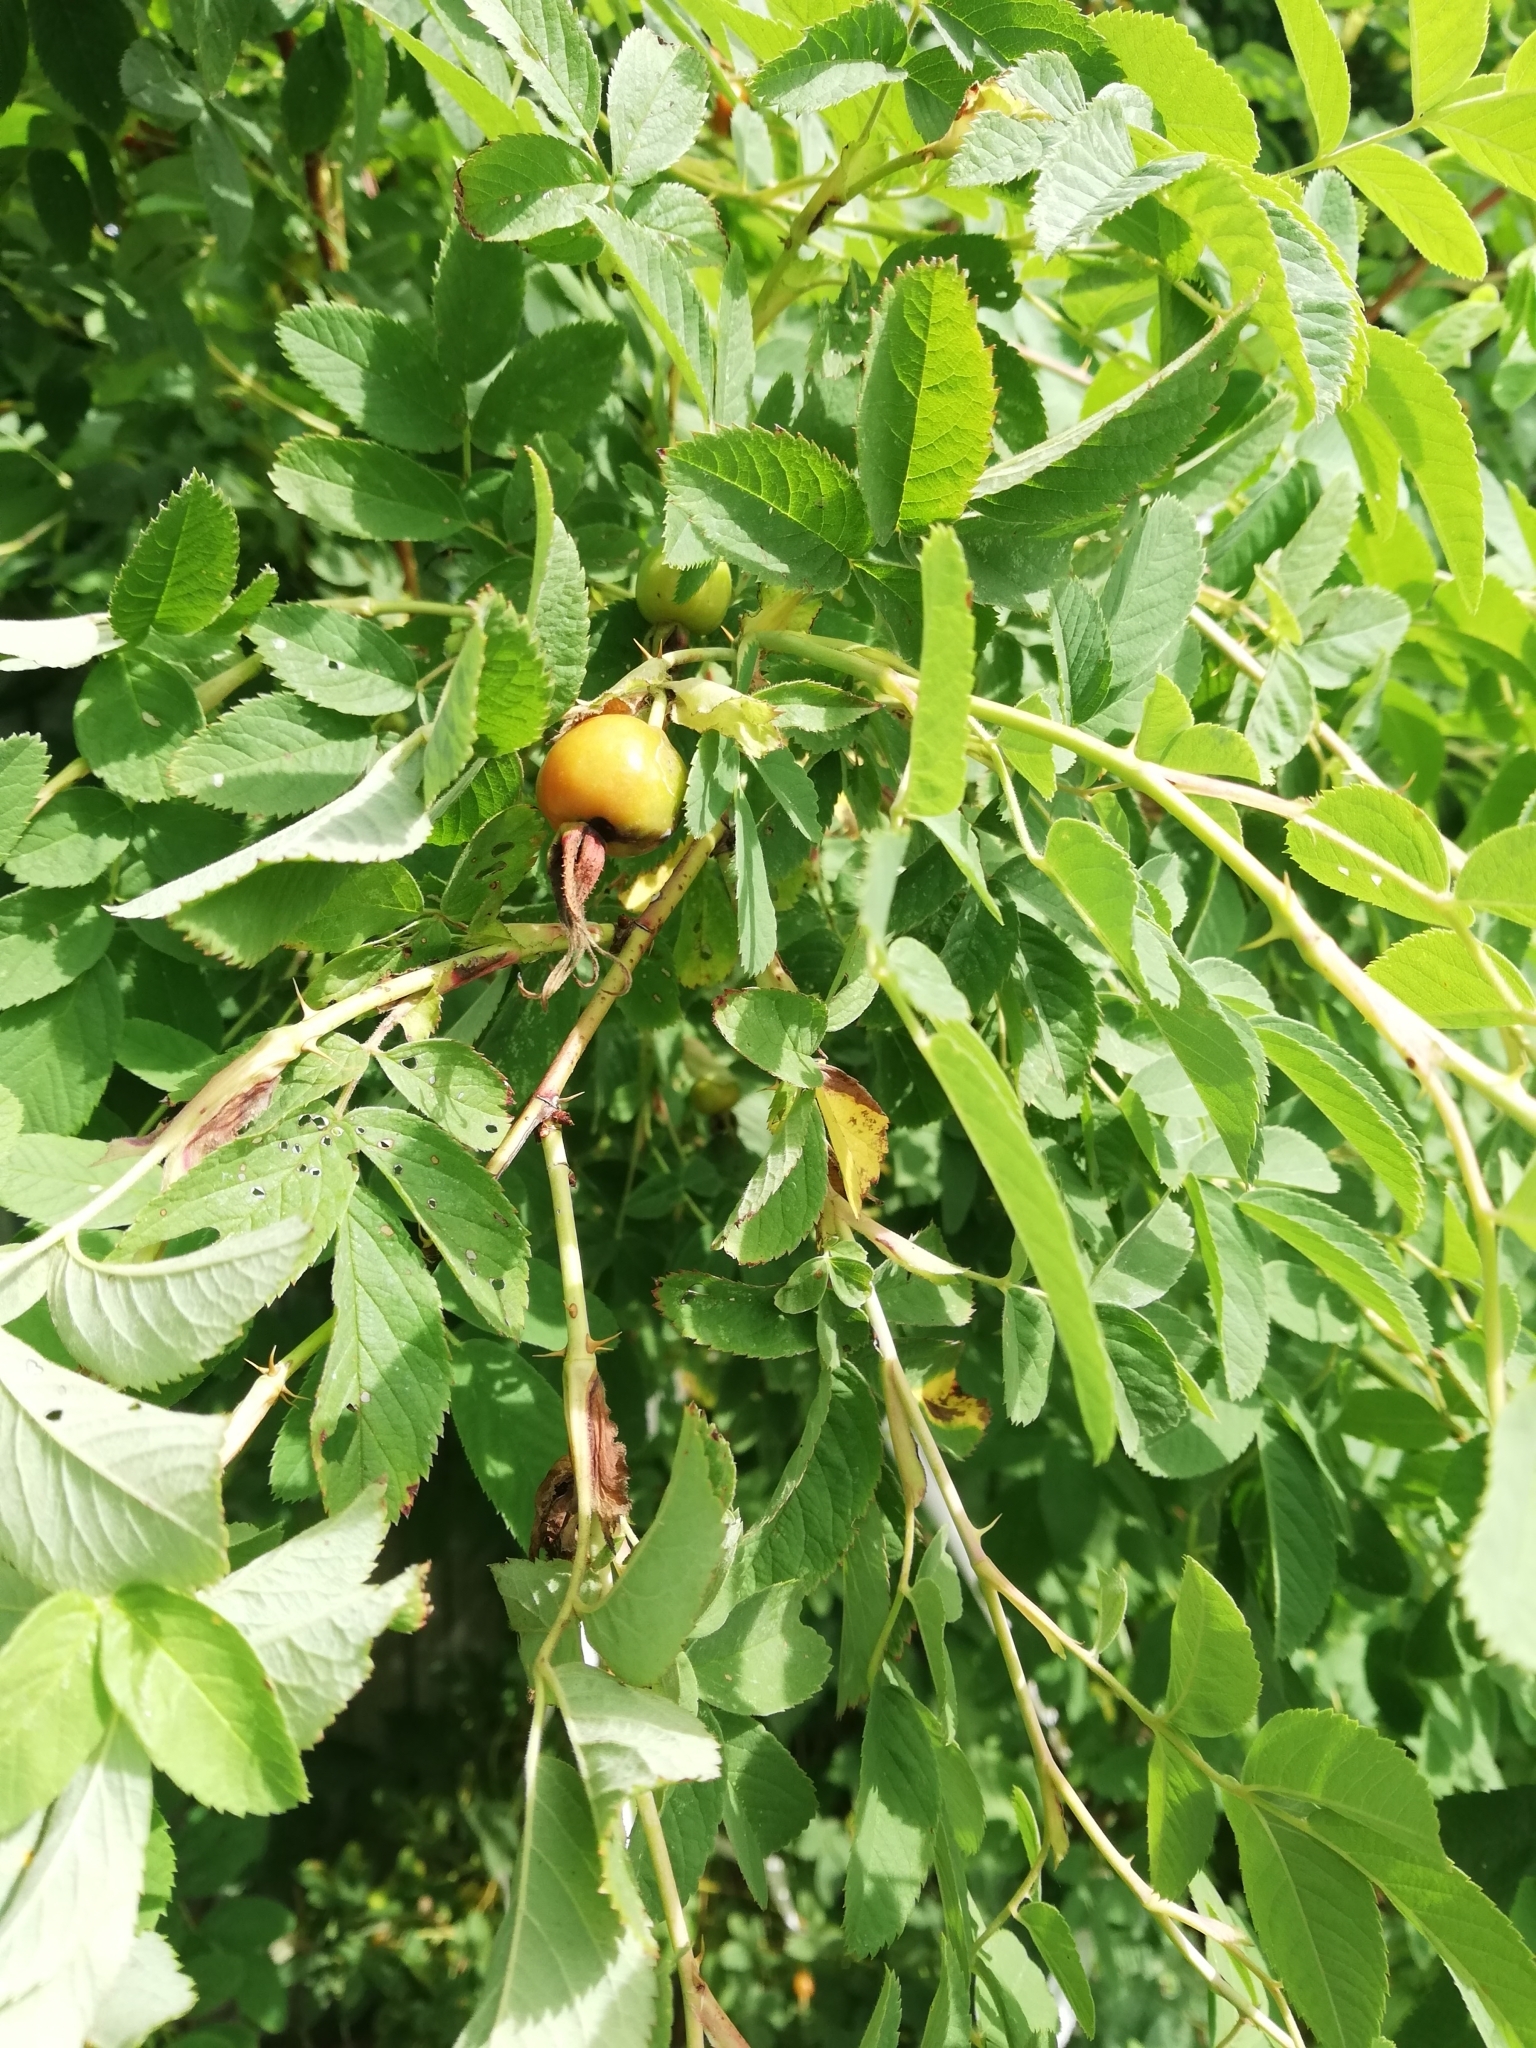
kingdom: Plantae
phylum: Tracheophyta
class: Magnoliopsida
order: Rosales
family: Rosaceae
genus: Rosa
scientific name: Rosa majalis
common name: Cinnamon rose
